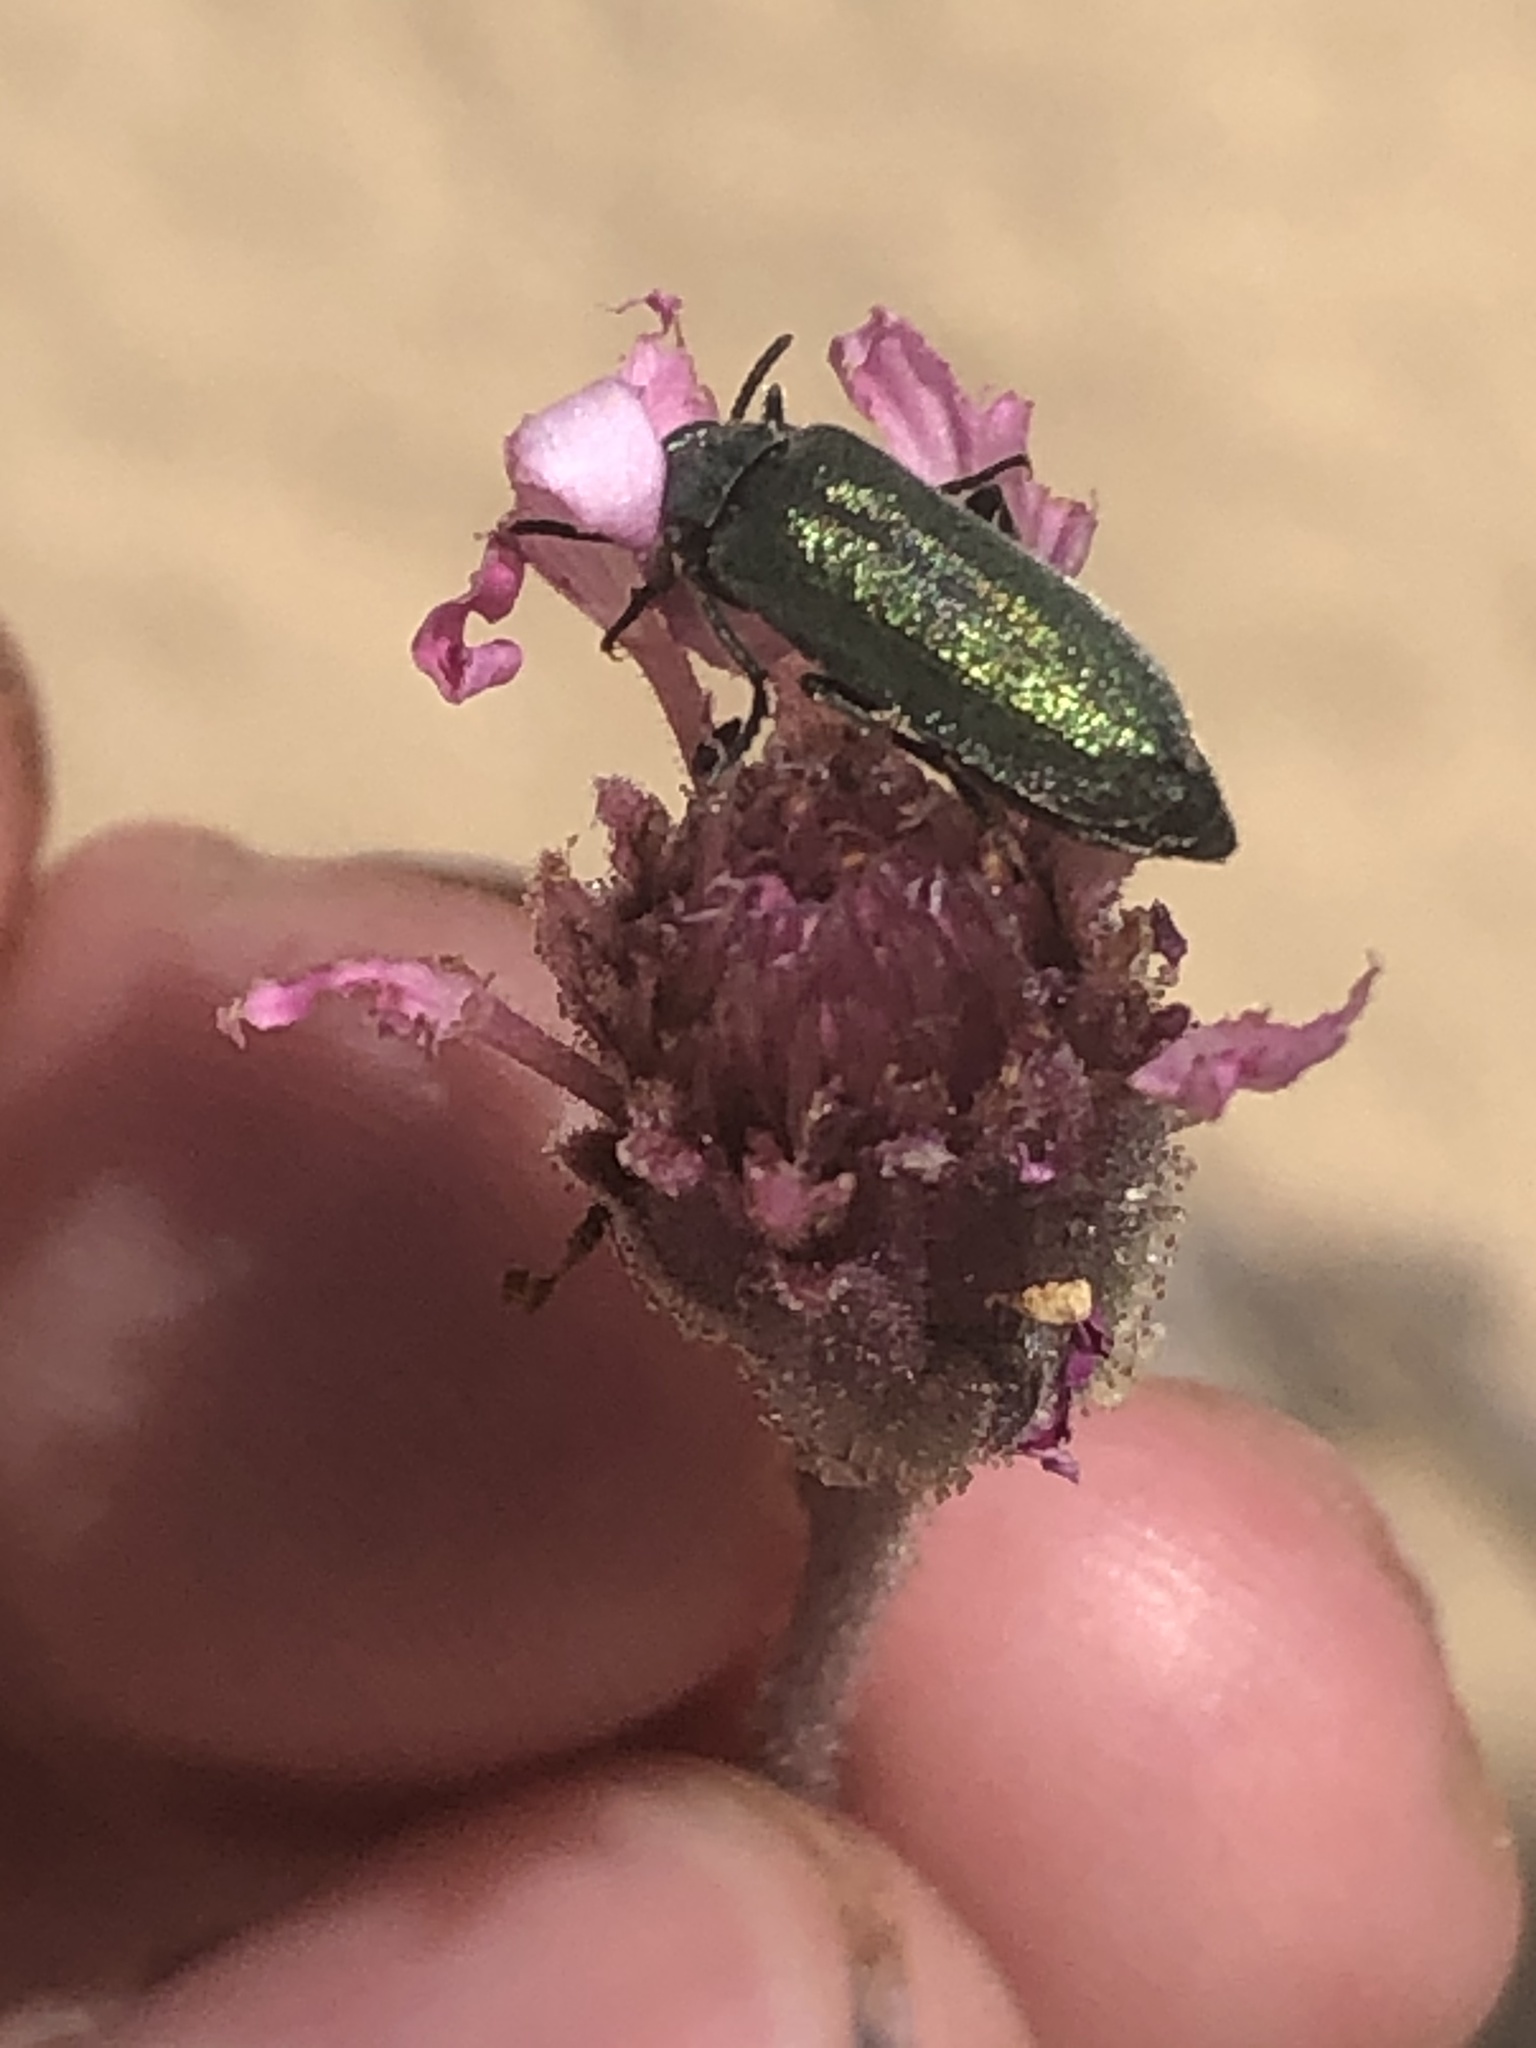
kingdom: Animalia
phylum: Arthropoda
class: Insecta
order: Coleoptera
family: Meloidae
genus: Eupompha
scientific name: Eupompha viridis
